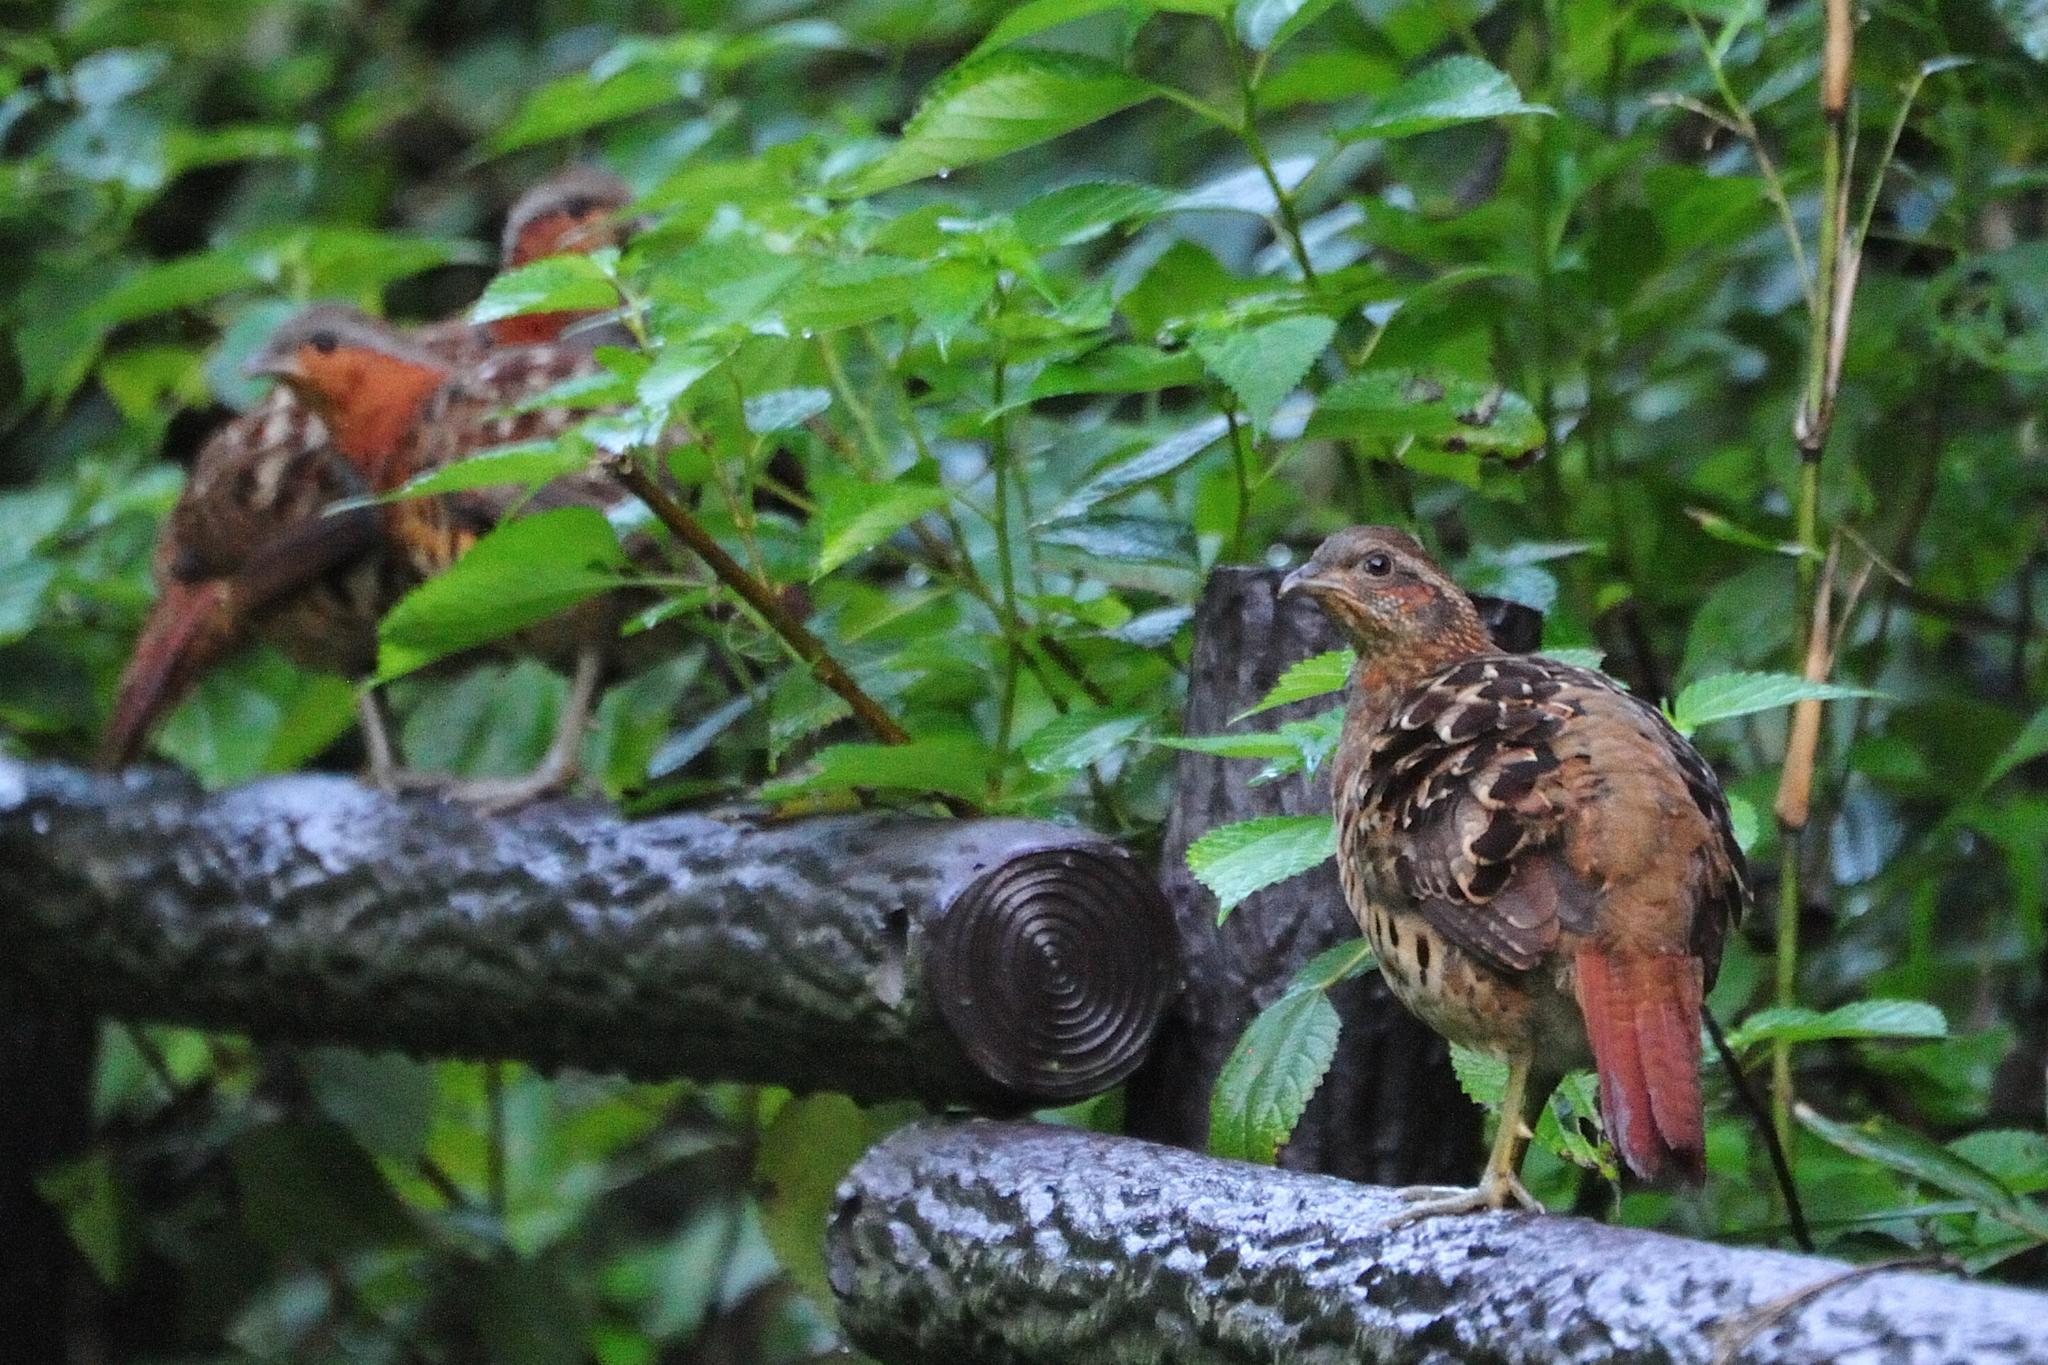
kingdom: Animalia
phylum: Chordata
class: Aves
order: Galliformes
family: Phasianidae
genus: Bambusicola
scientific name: Bambusicola thoracicus
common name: Chinese bamboo partridge
